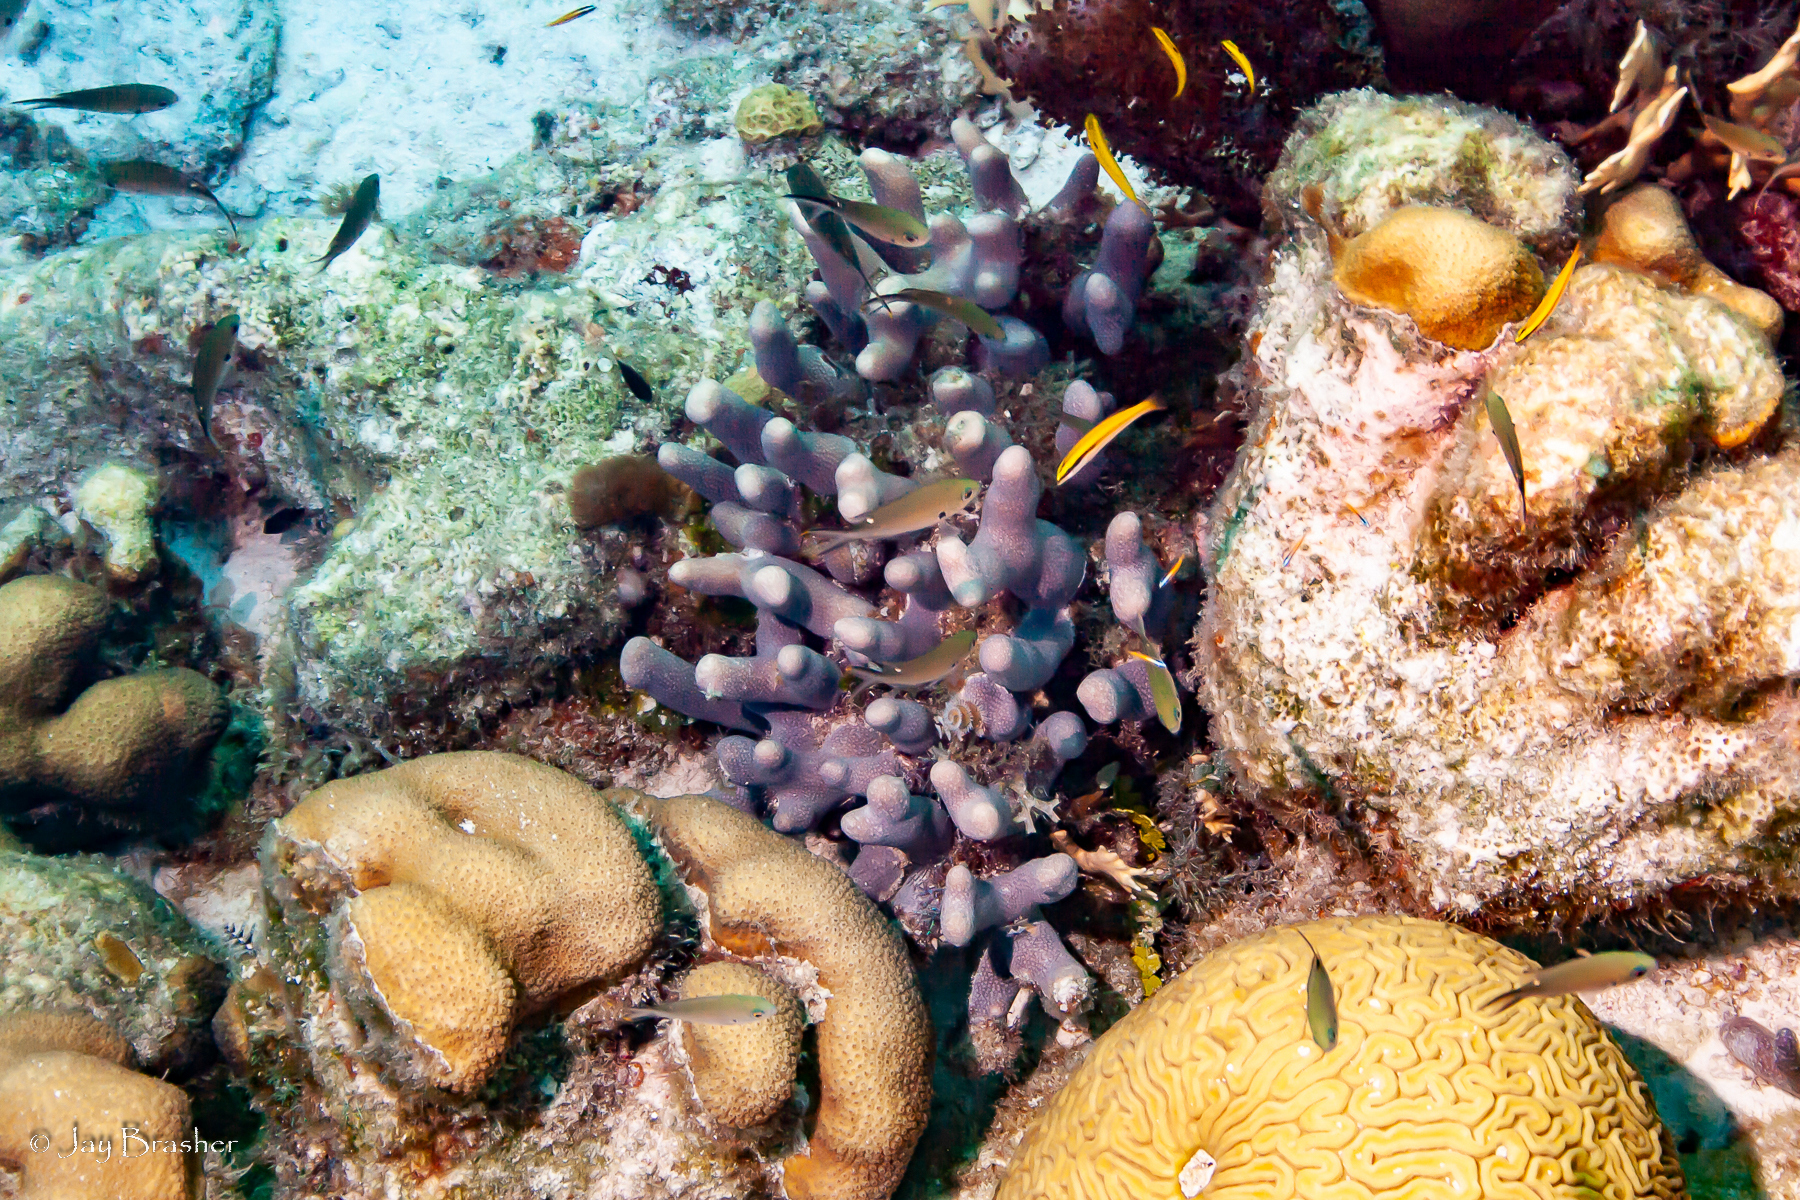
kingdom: Animalia
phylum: Chordata
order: Perciformes
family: Labridae
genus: Halichoeres
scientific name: Halichoeres pictus
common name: Rainbow wrasse
